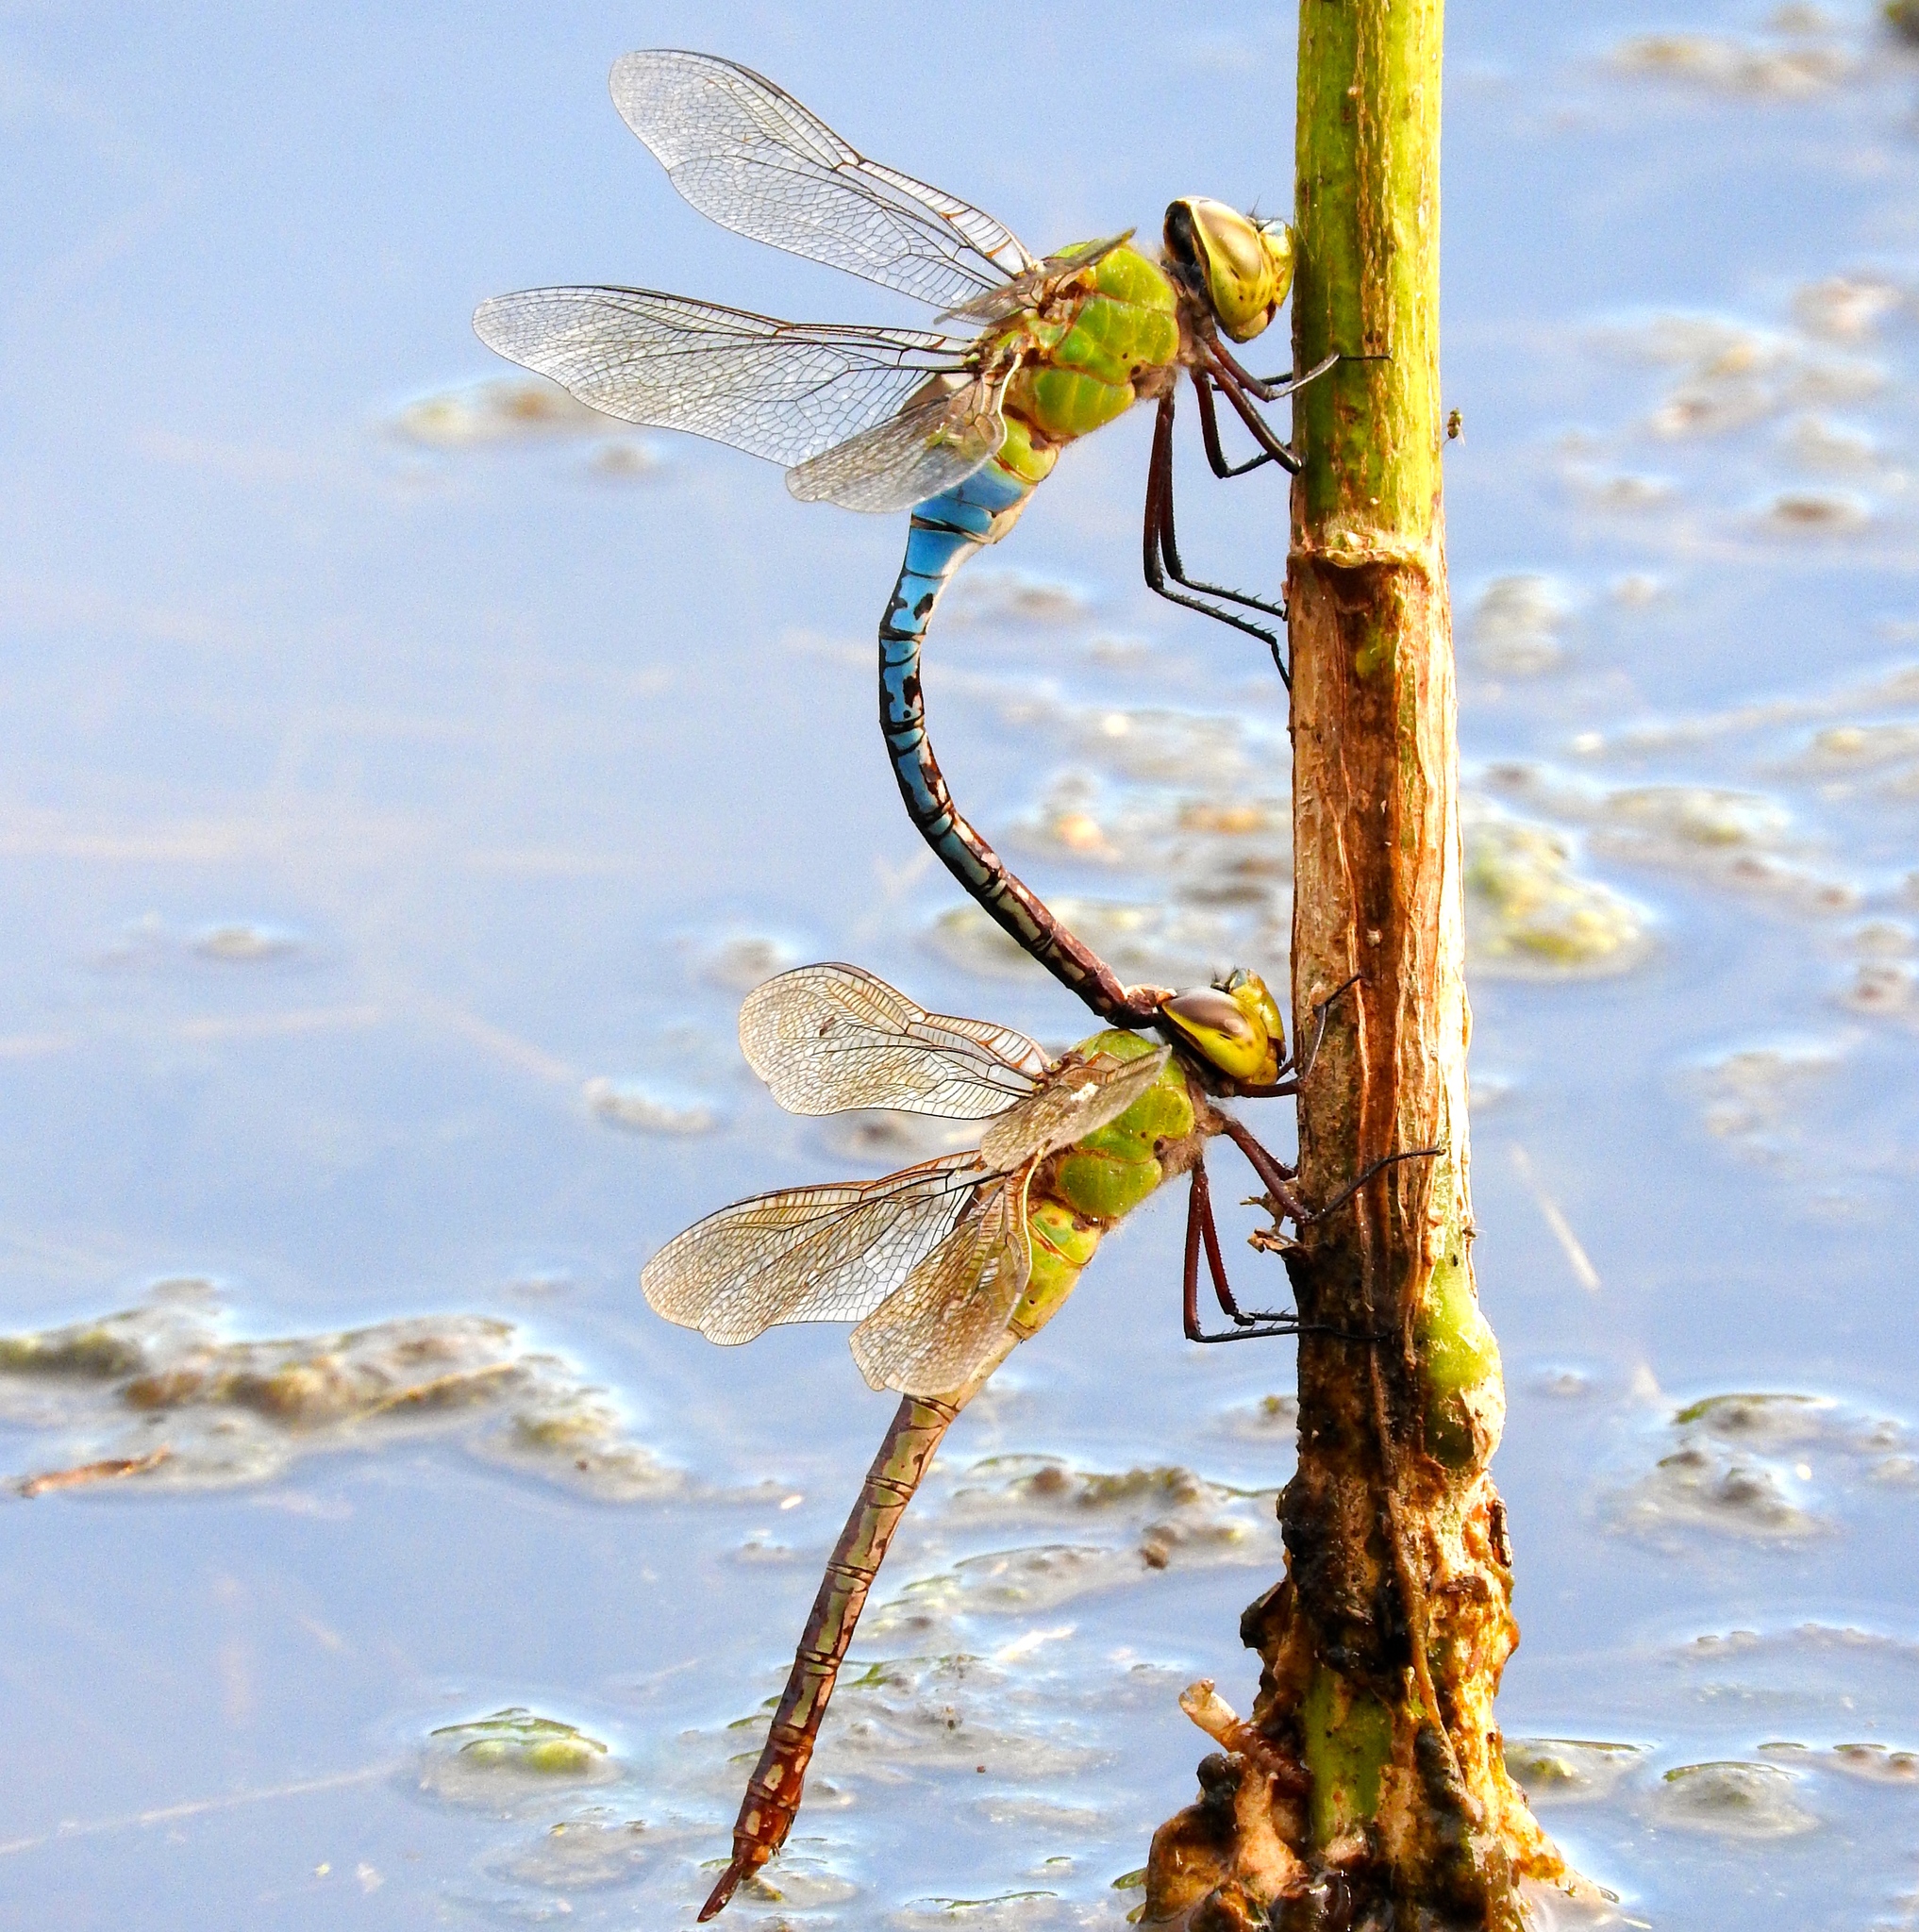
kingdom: Animalia
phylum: Arthropoda
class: Insecta
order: Odonata
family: Aeshnidae
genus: Anax
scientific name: Anax junius
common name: Common green darner
